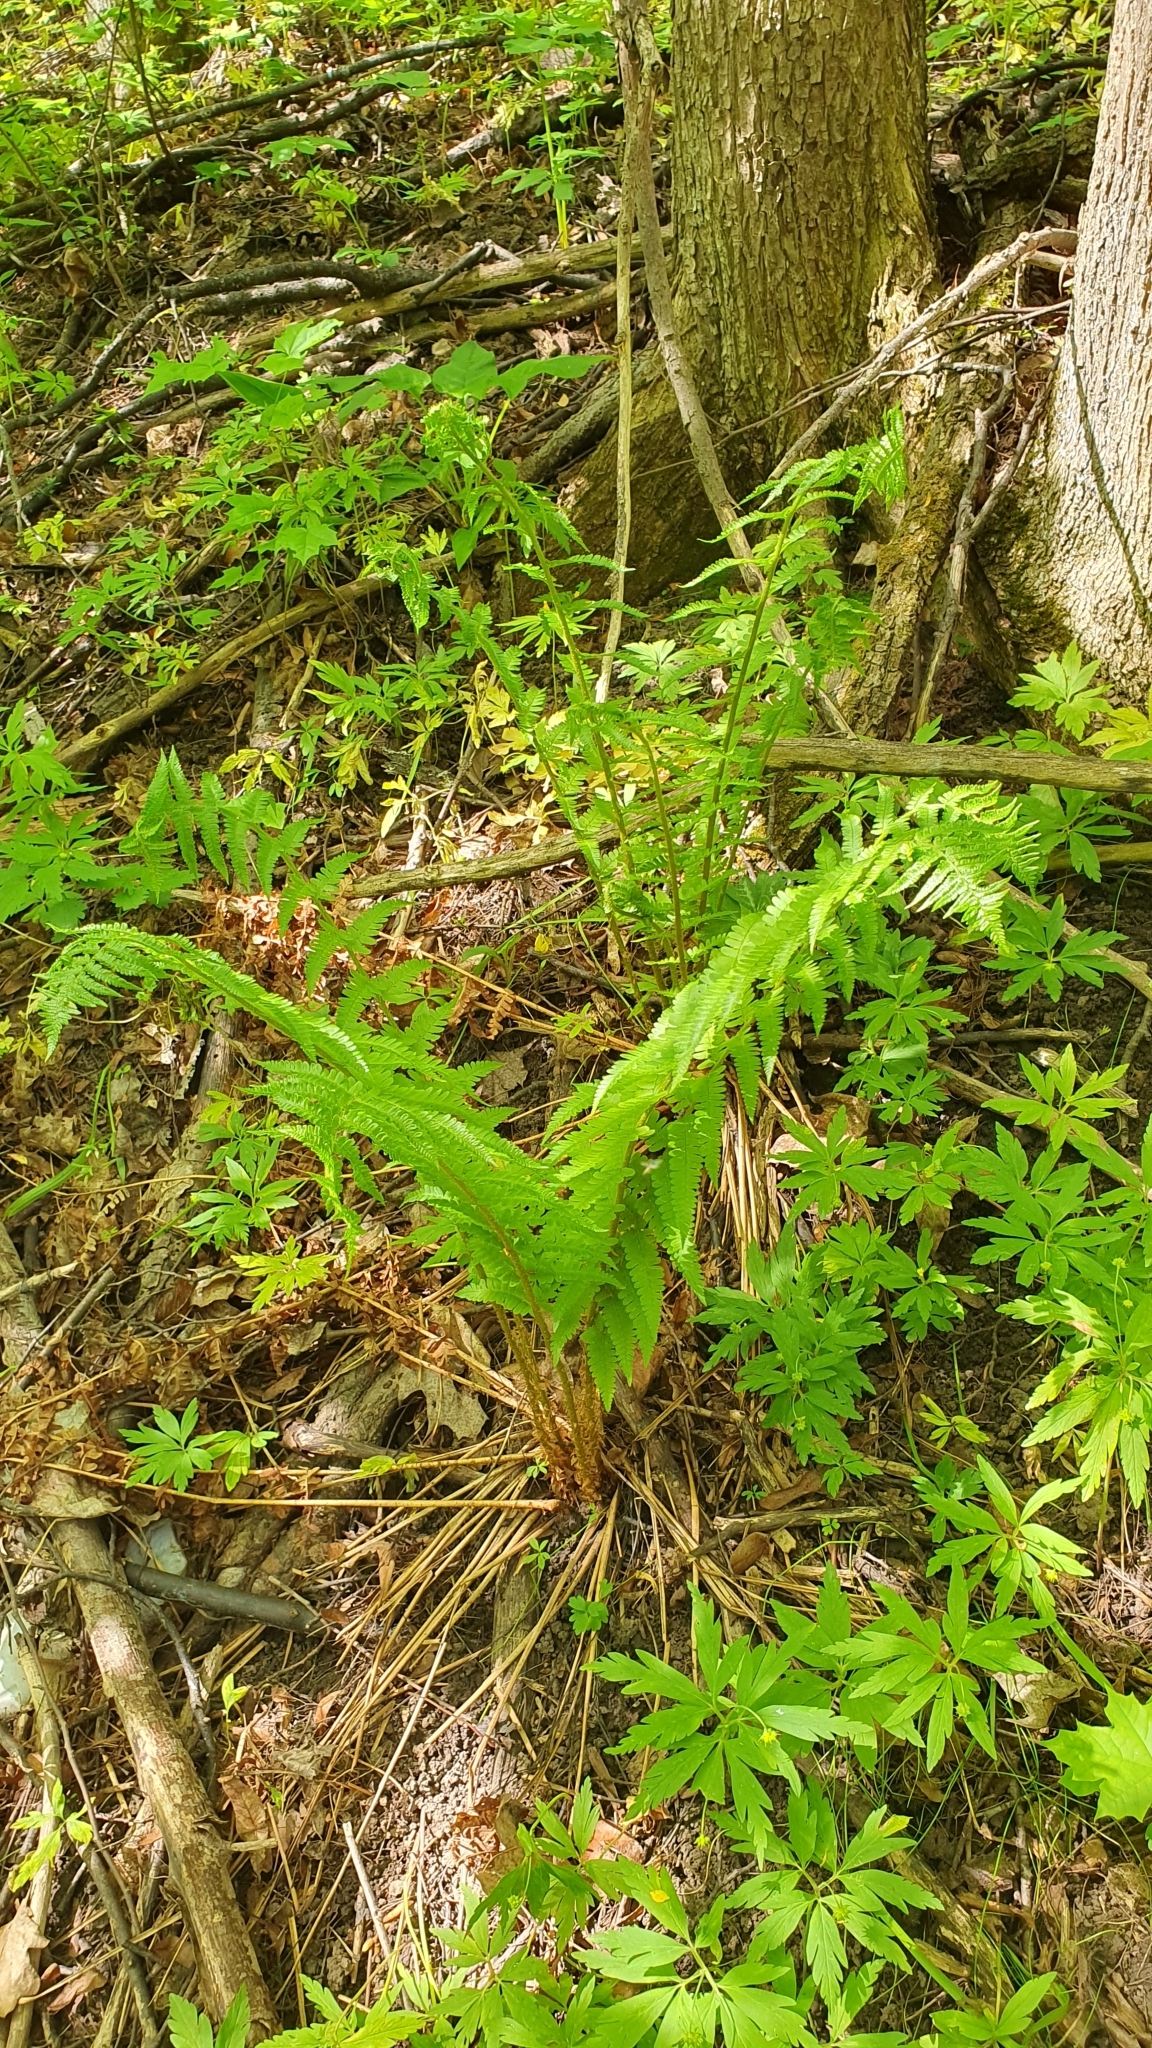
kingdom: Plantae
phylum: Tracheophyta
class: Polypodiopsida
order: Polypodiales
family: Dryopteridaceae
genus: Dryopteris
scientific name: Dryopteris filix-mas
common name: Male fern
